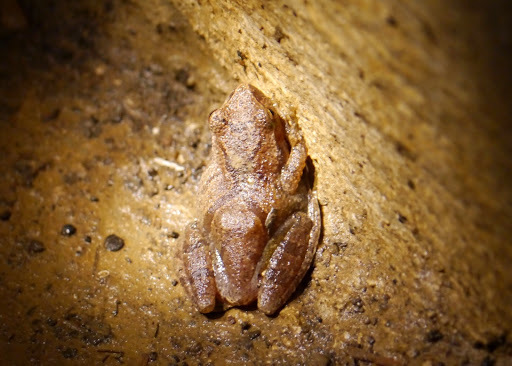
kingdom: Animalia
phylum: Chordata
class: Amphibia
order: Anura
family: Hylidae
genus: Pseudacris
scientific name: Pseudacris crucifer
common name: Spring peeper
